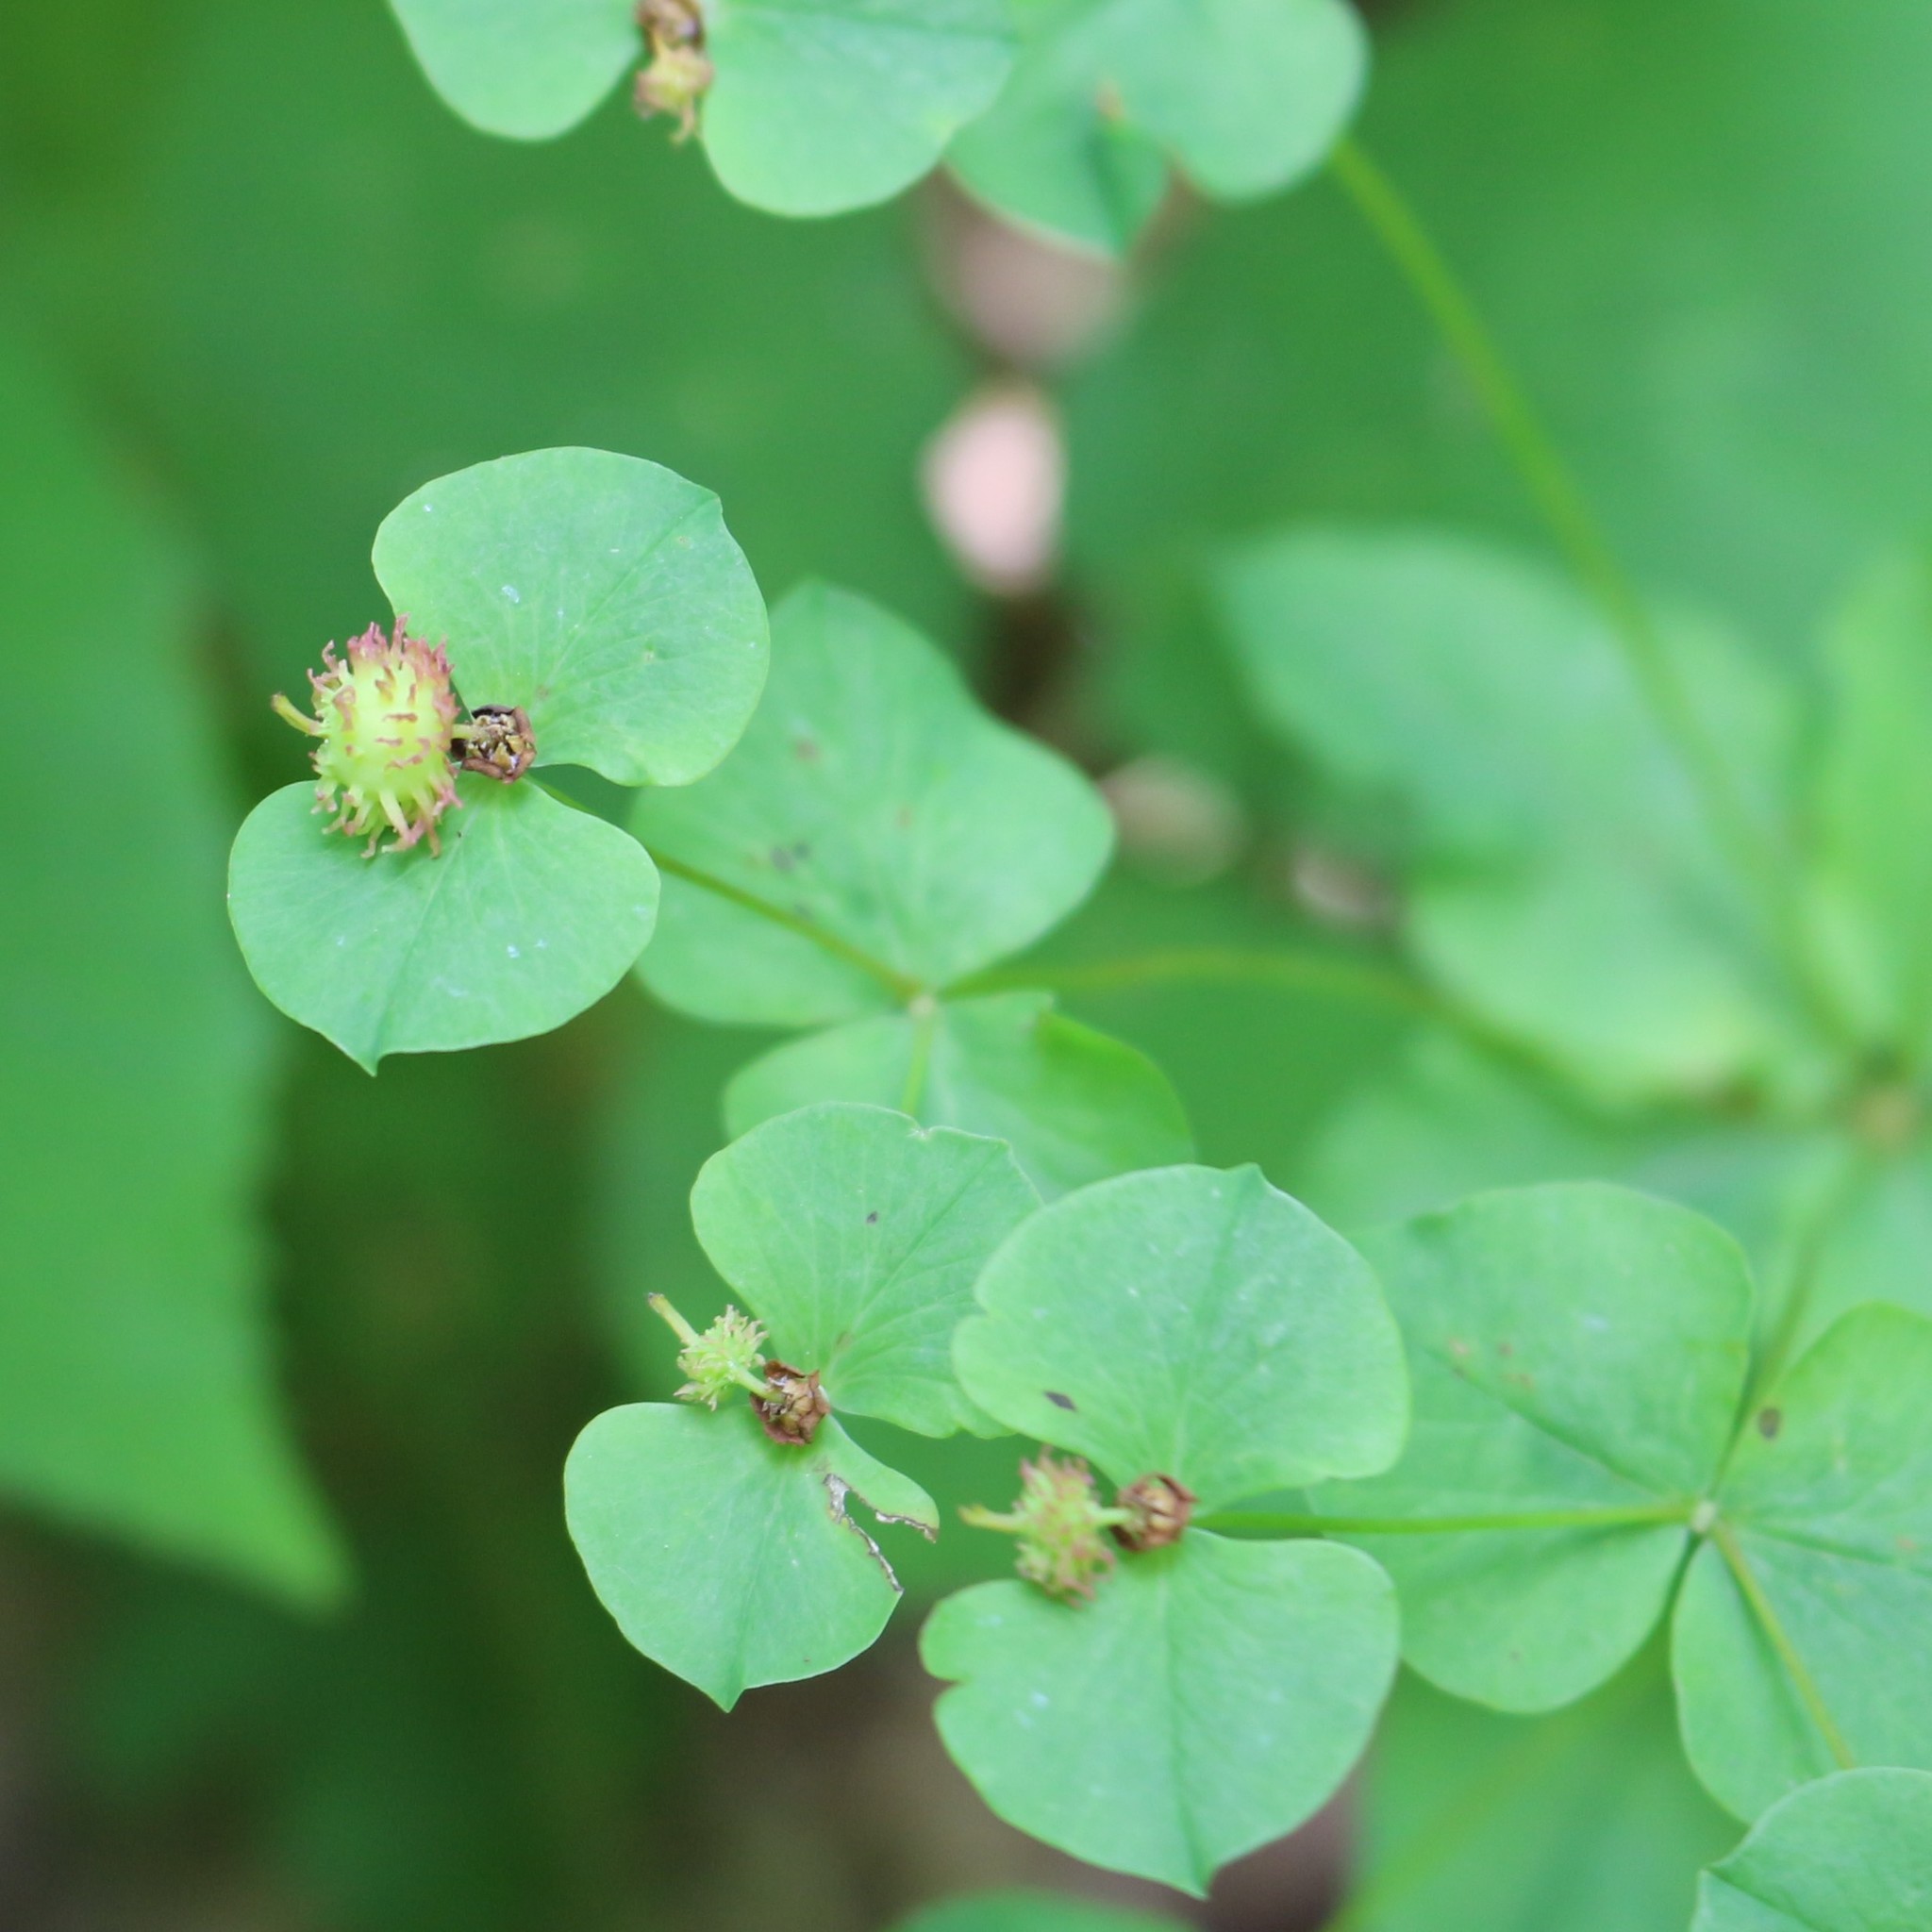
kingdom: Plantae
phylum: Tracheophyta
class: Magnoliopsida
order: Malpighiales
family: Euphorbiaceae
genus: Euphorbia
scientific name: Euphorbia squamosa
